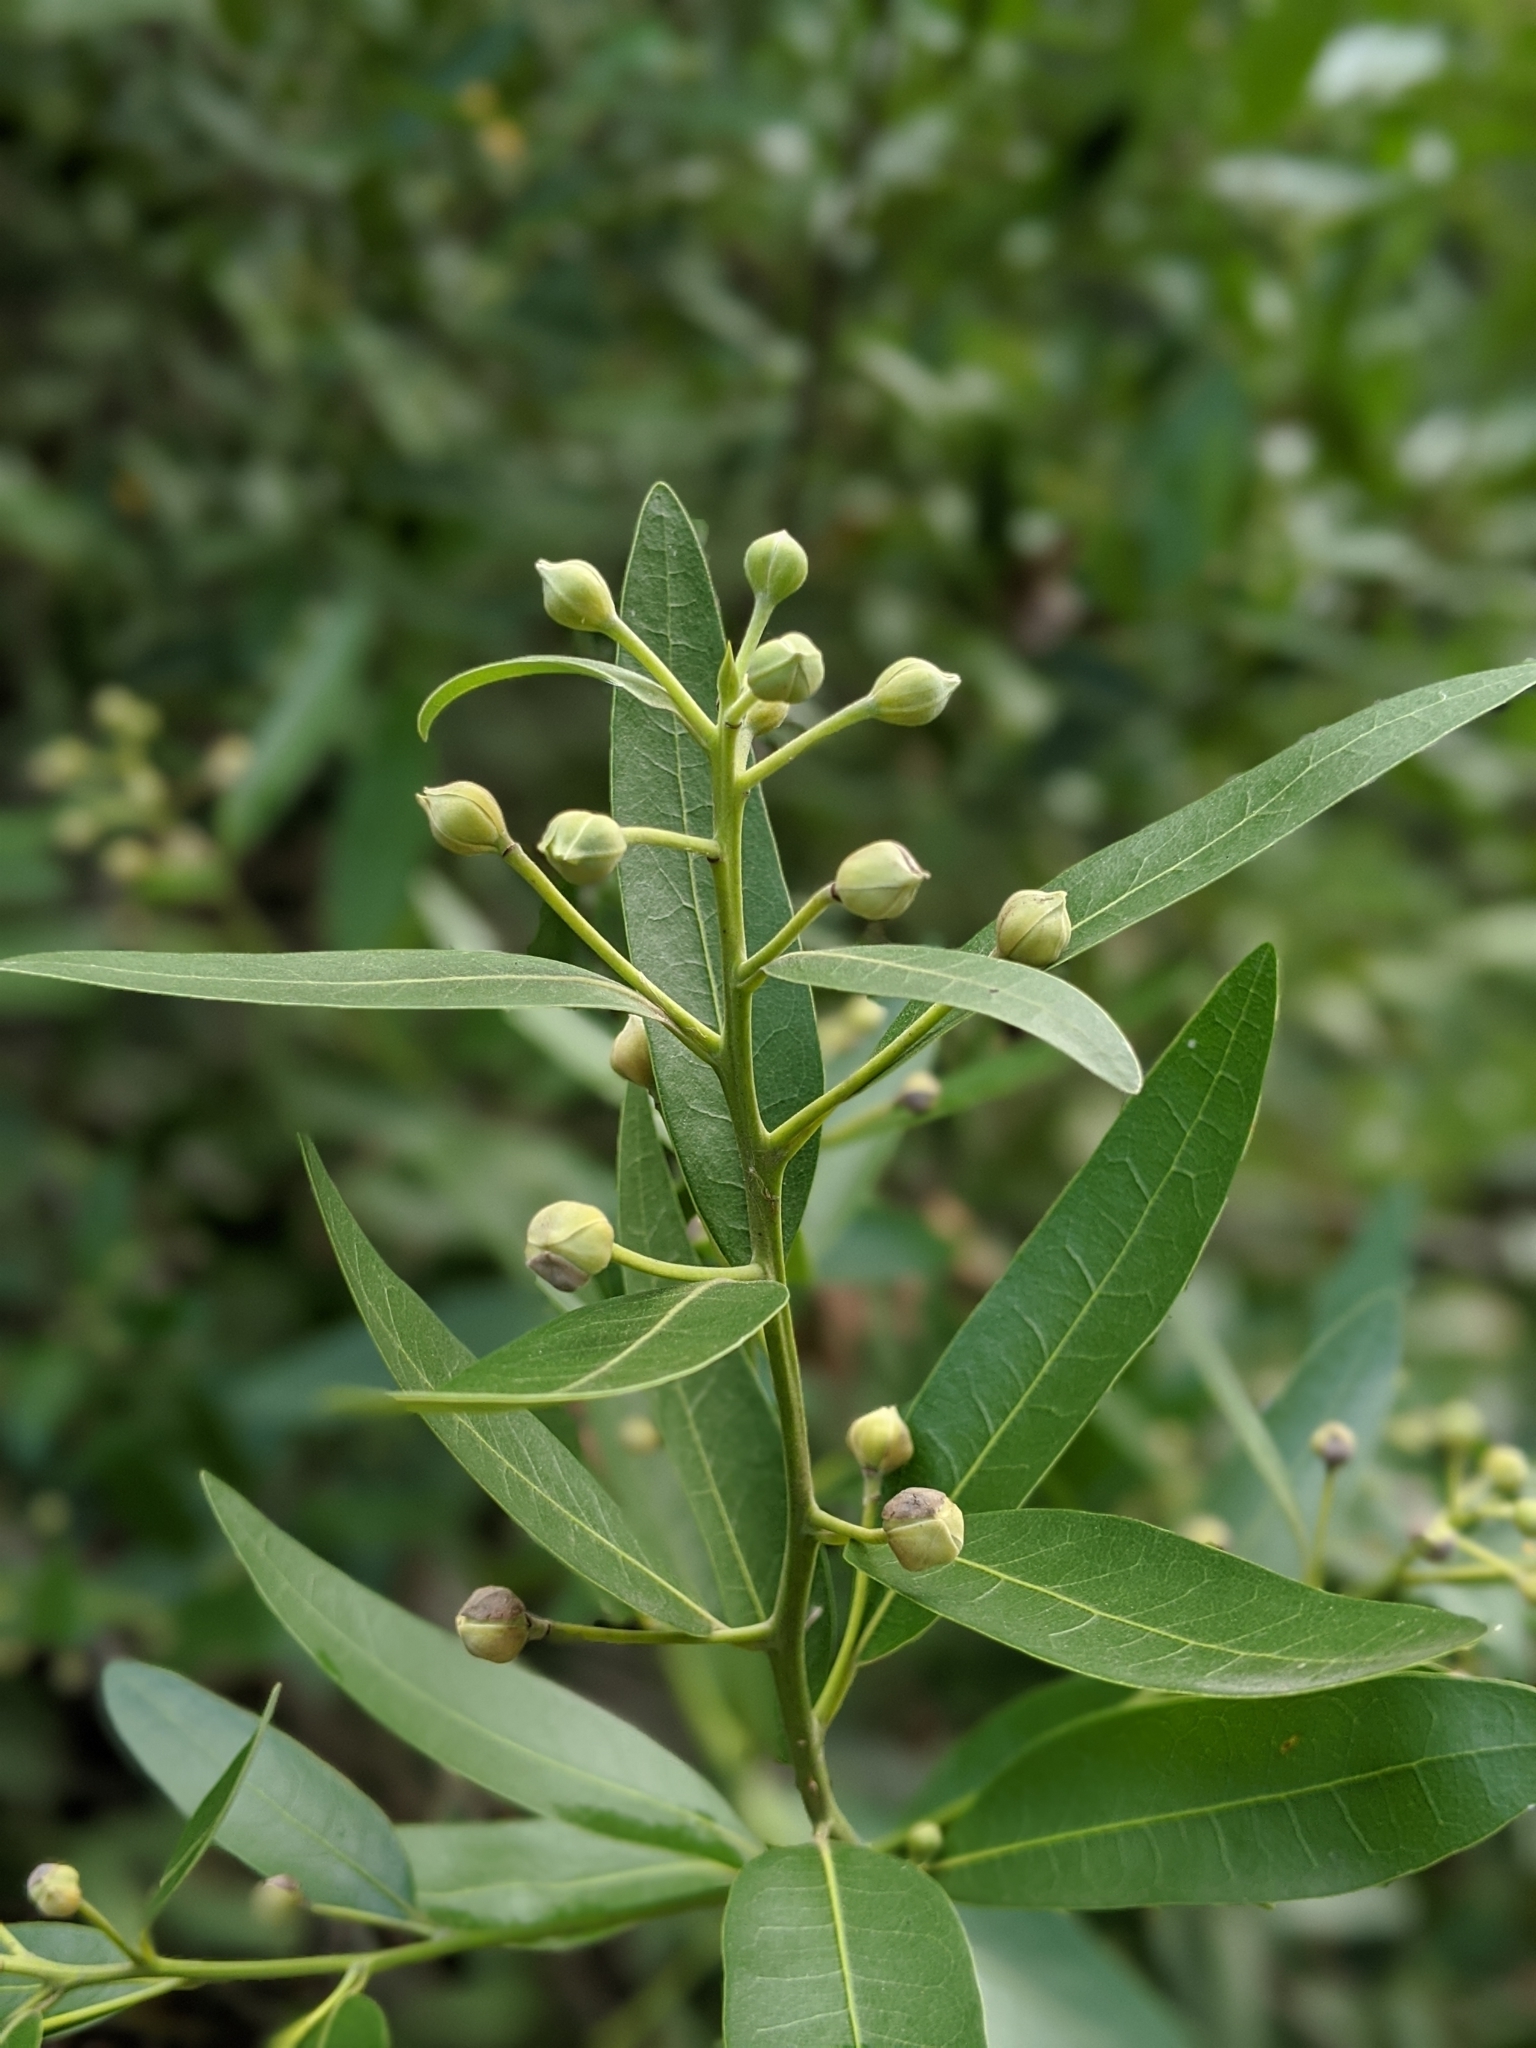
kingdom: Plantae
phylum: Tracheophyta
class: Magnoliopsida
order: Laurales
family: Lauraceae
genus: Umbellularia
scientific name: Umbellularia californica
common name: California bay
